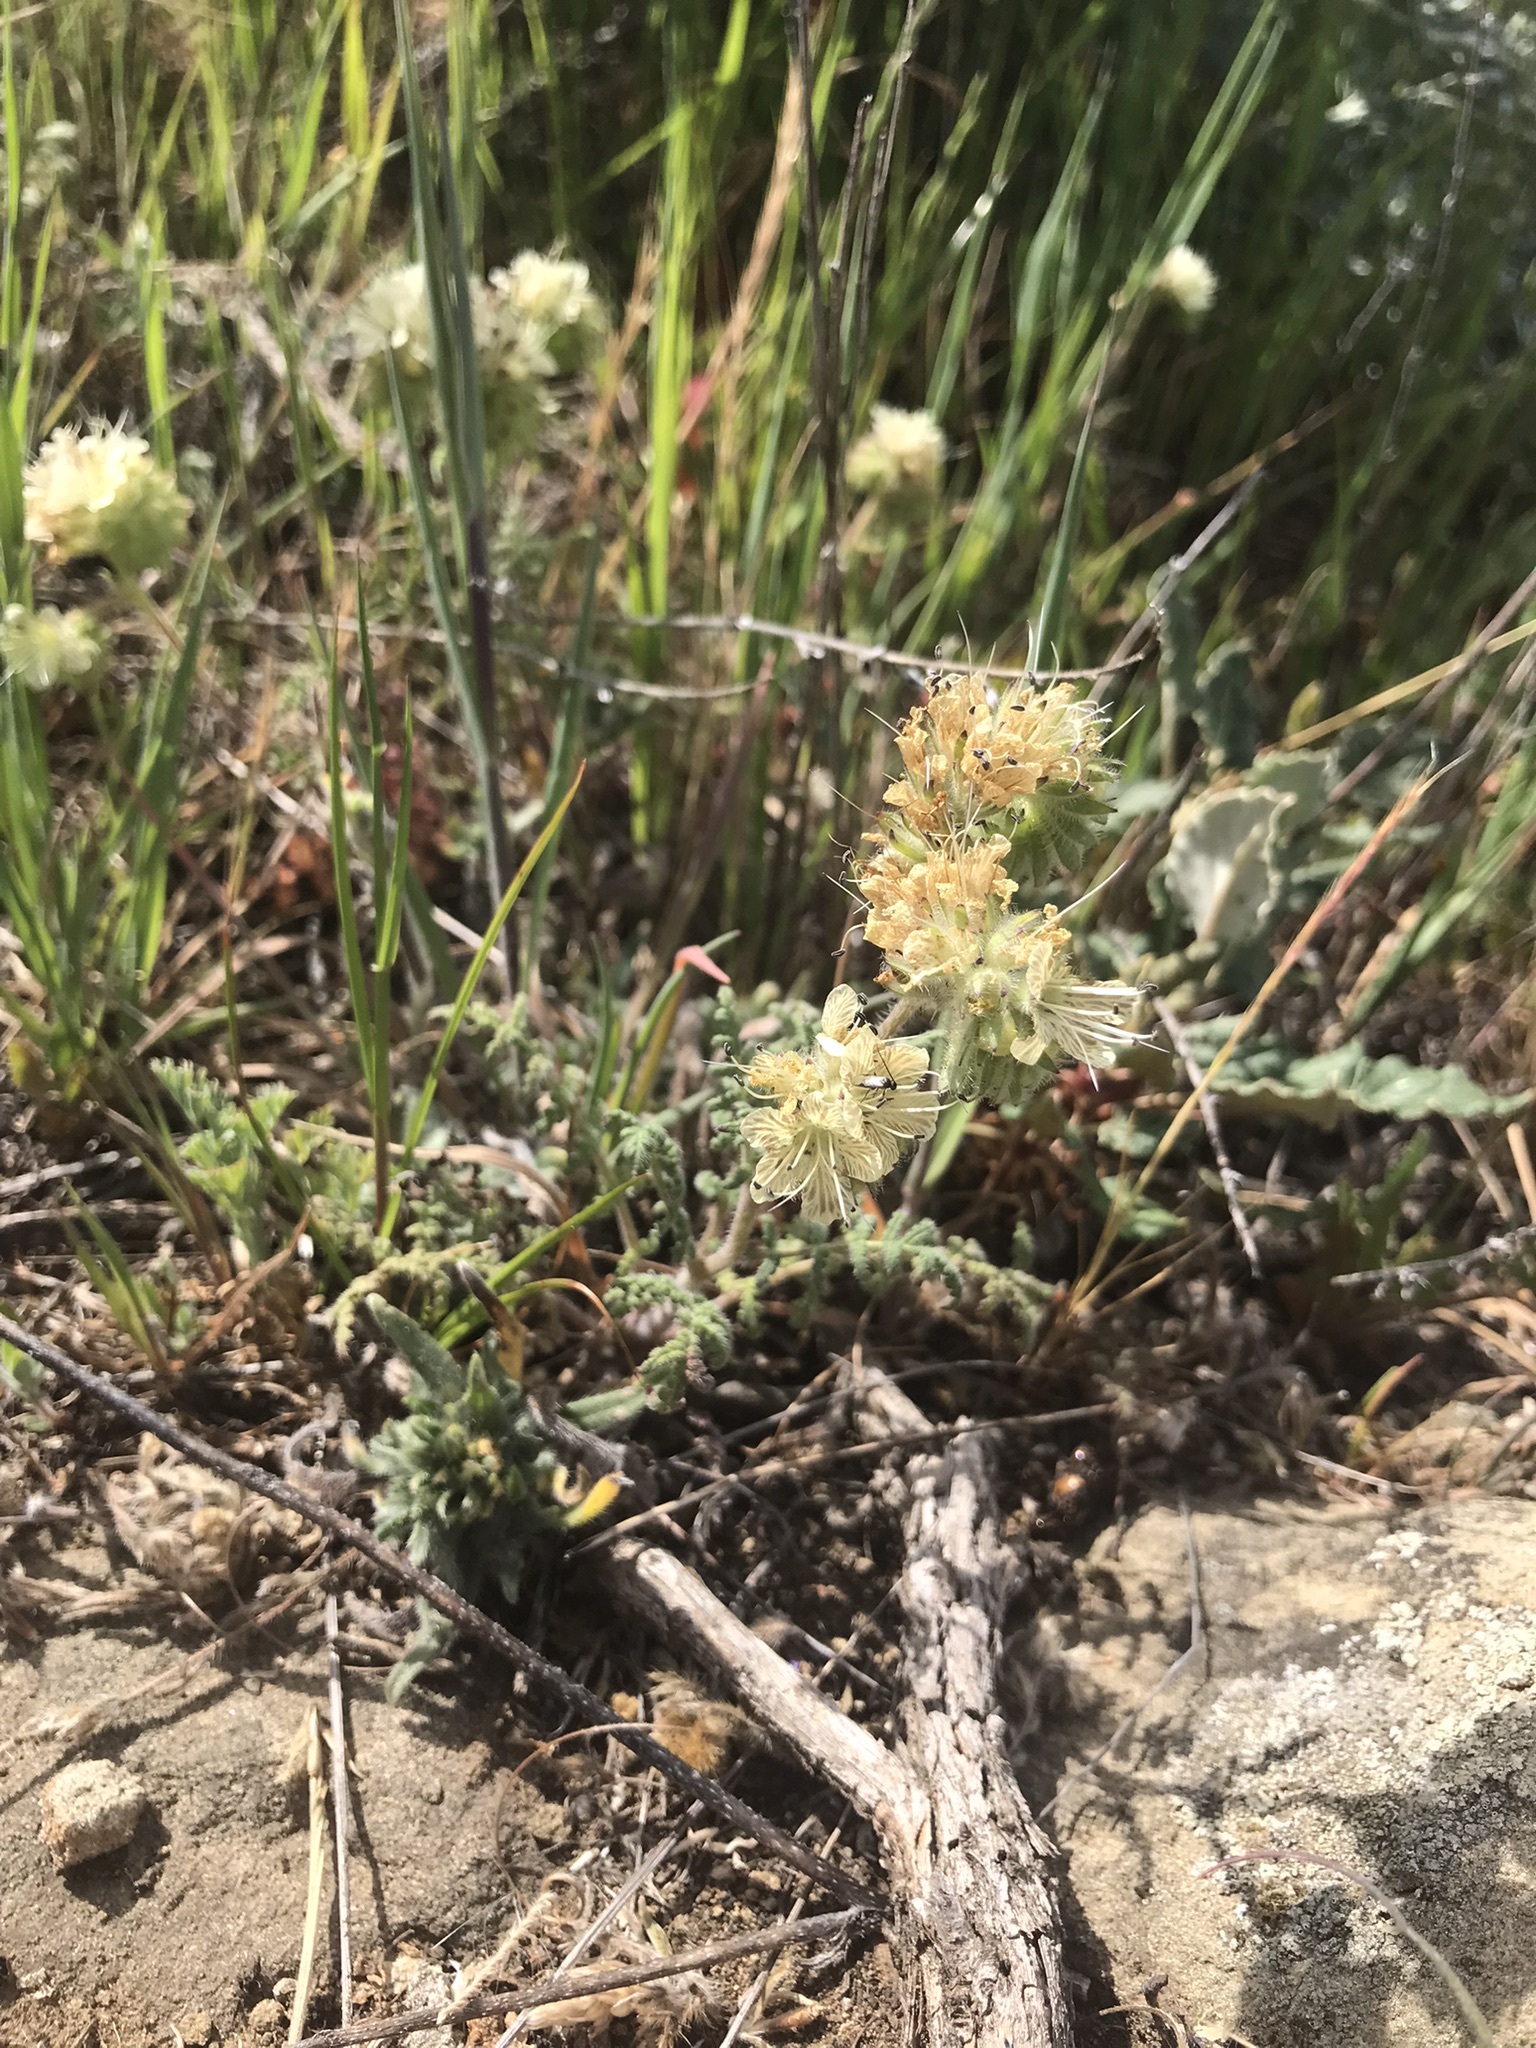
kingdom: Plantae
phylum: Tracheophyta
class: Magnoliopsida
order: Boraginales
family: Hydrophyllaceae
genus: Phacelia
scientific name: Phacelia distans
